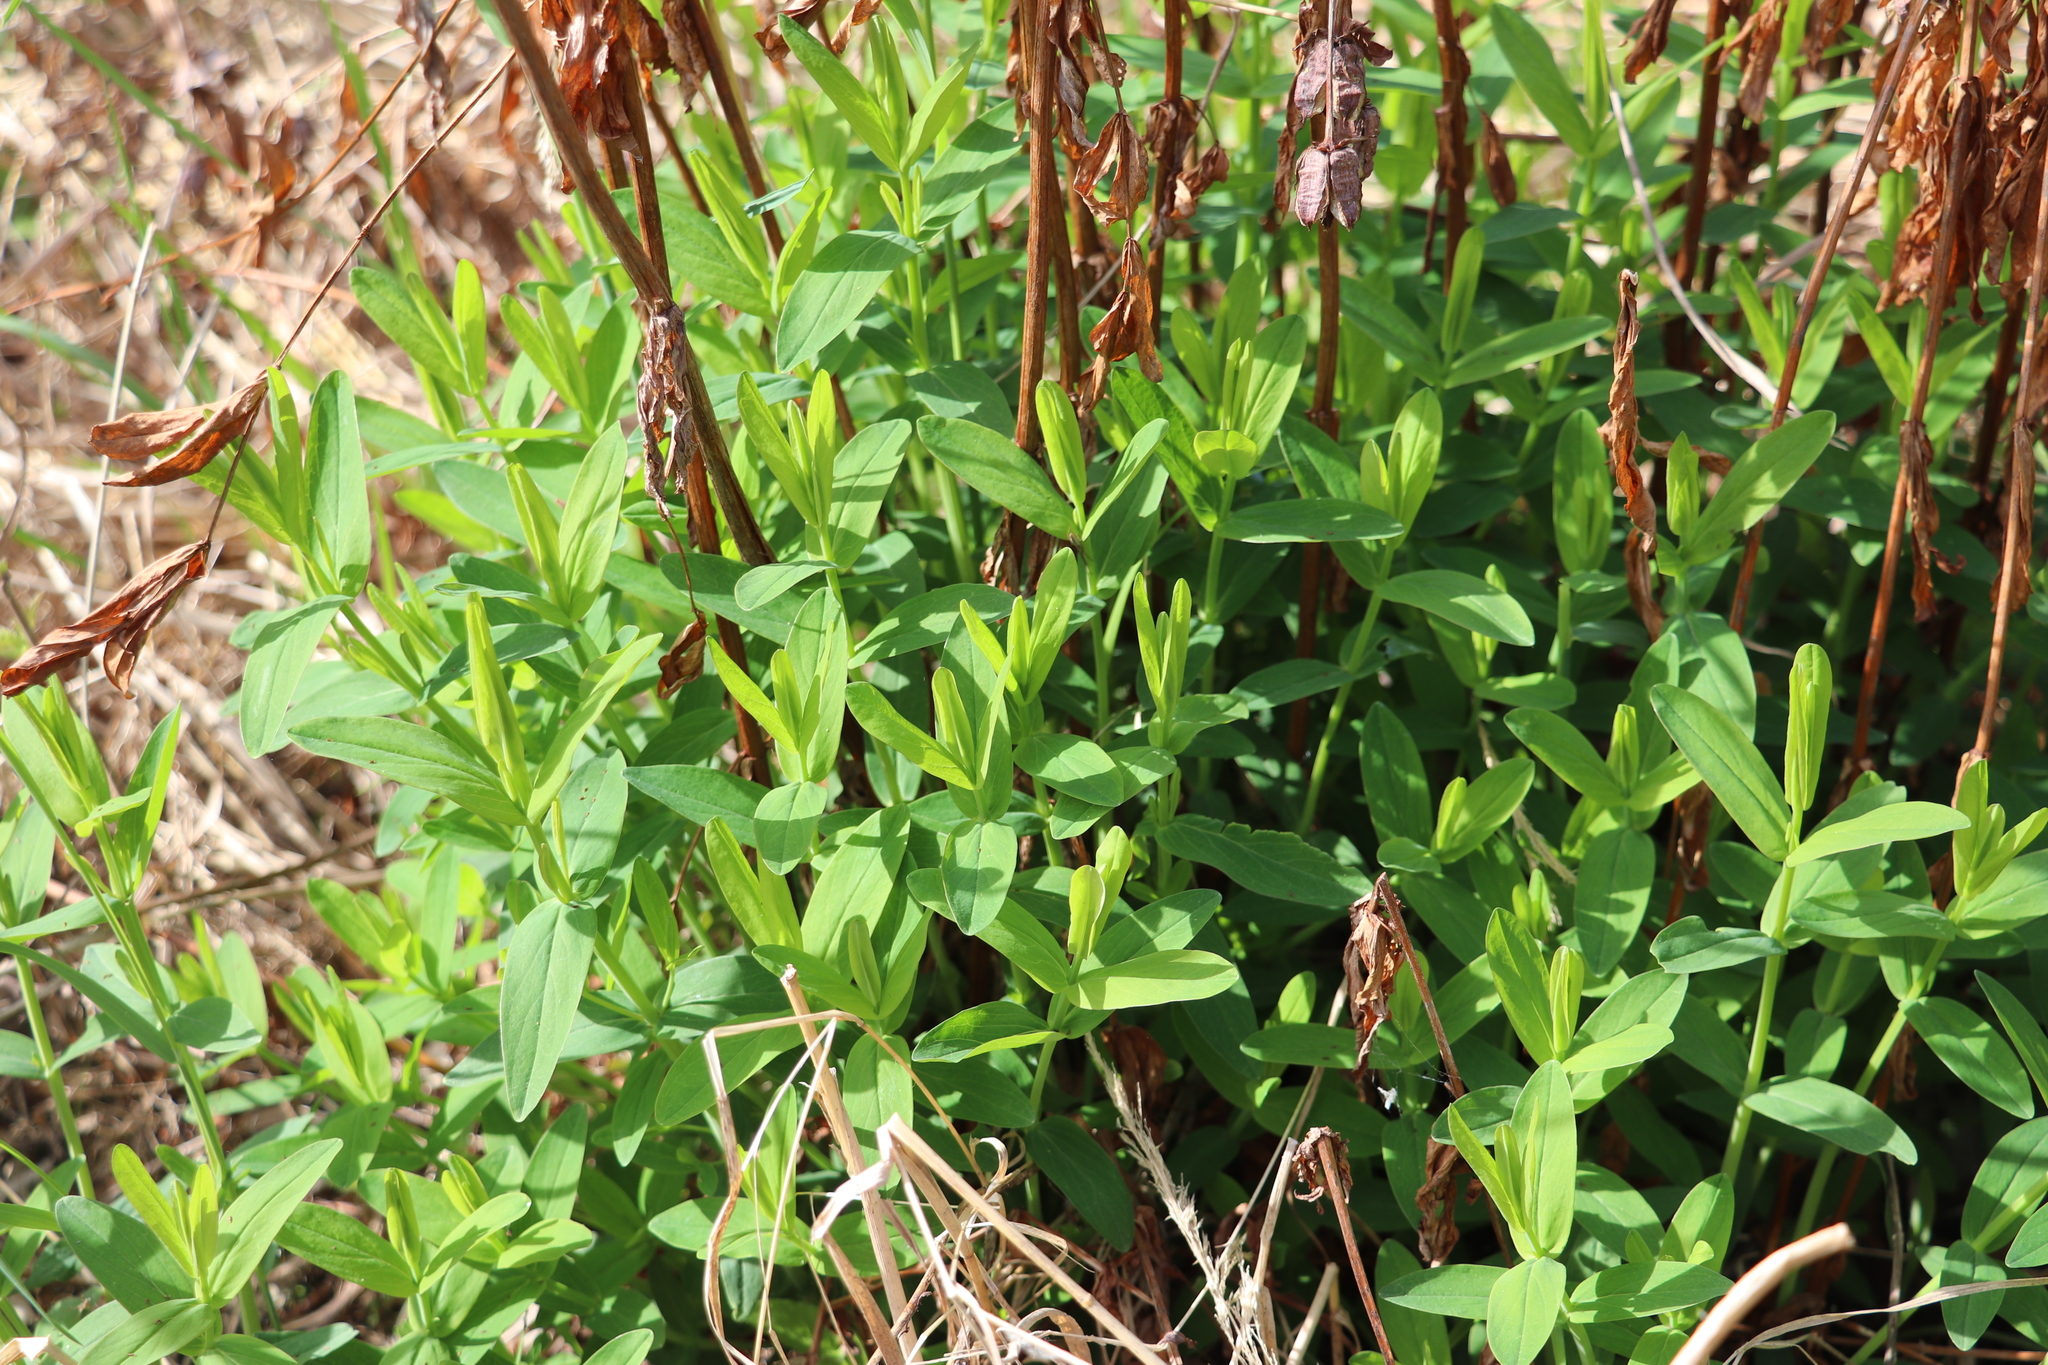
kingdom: Plantae
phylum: Tracheophyta
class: Magnoliopsida
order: Malpighiales
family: Hypericaceae
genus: Hypericum
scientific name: Hypericum ascyron
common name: Giant st. john's-wort
